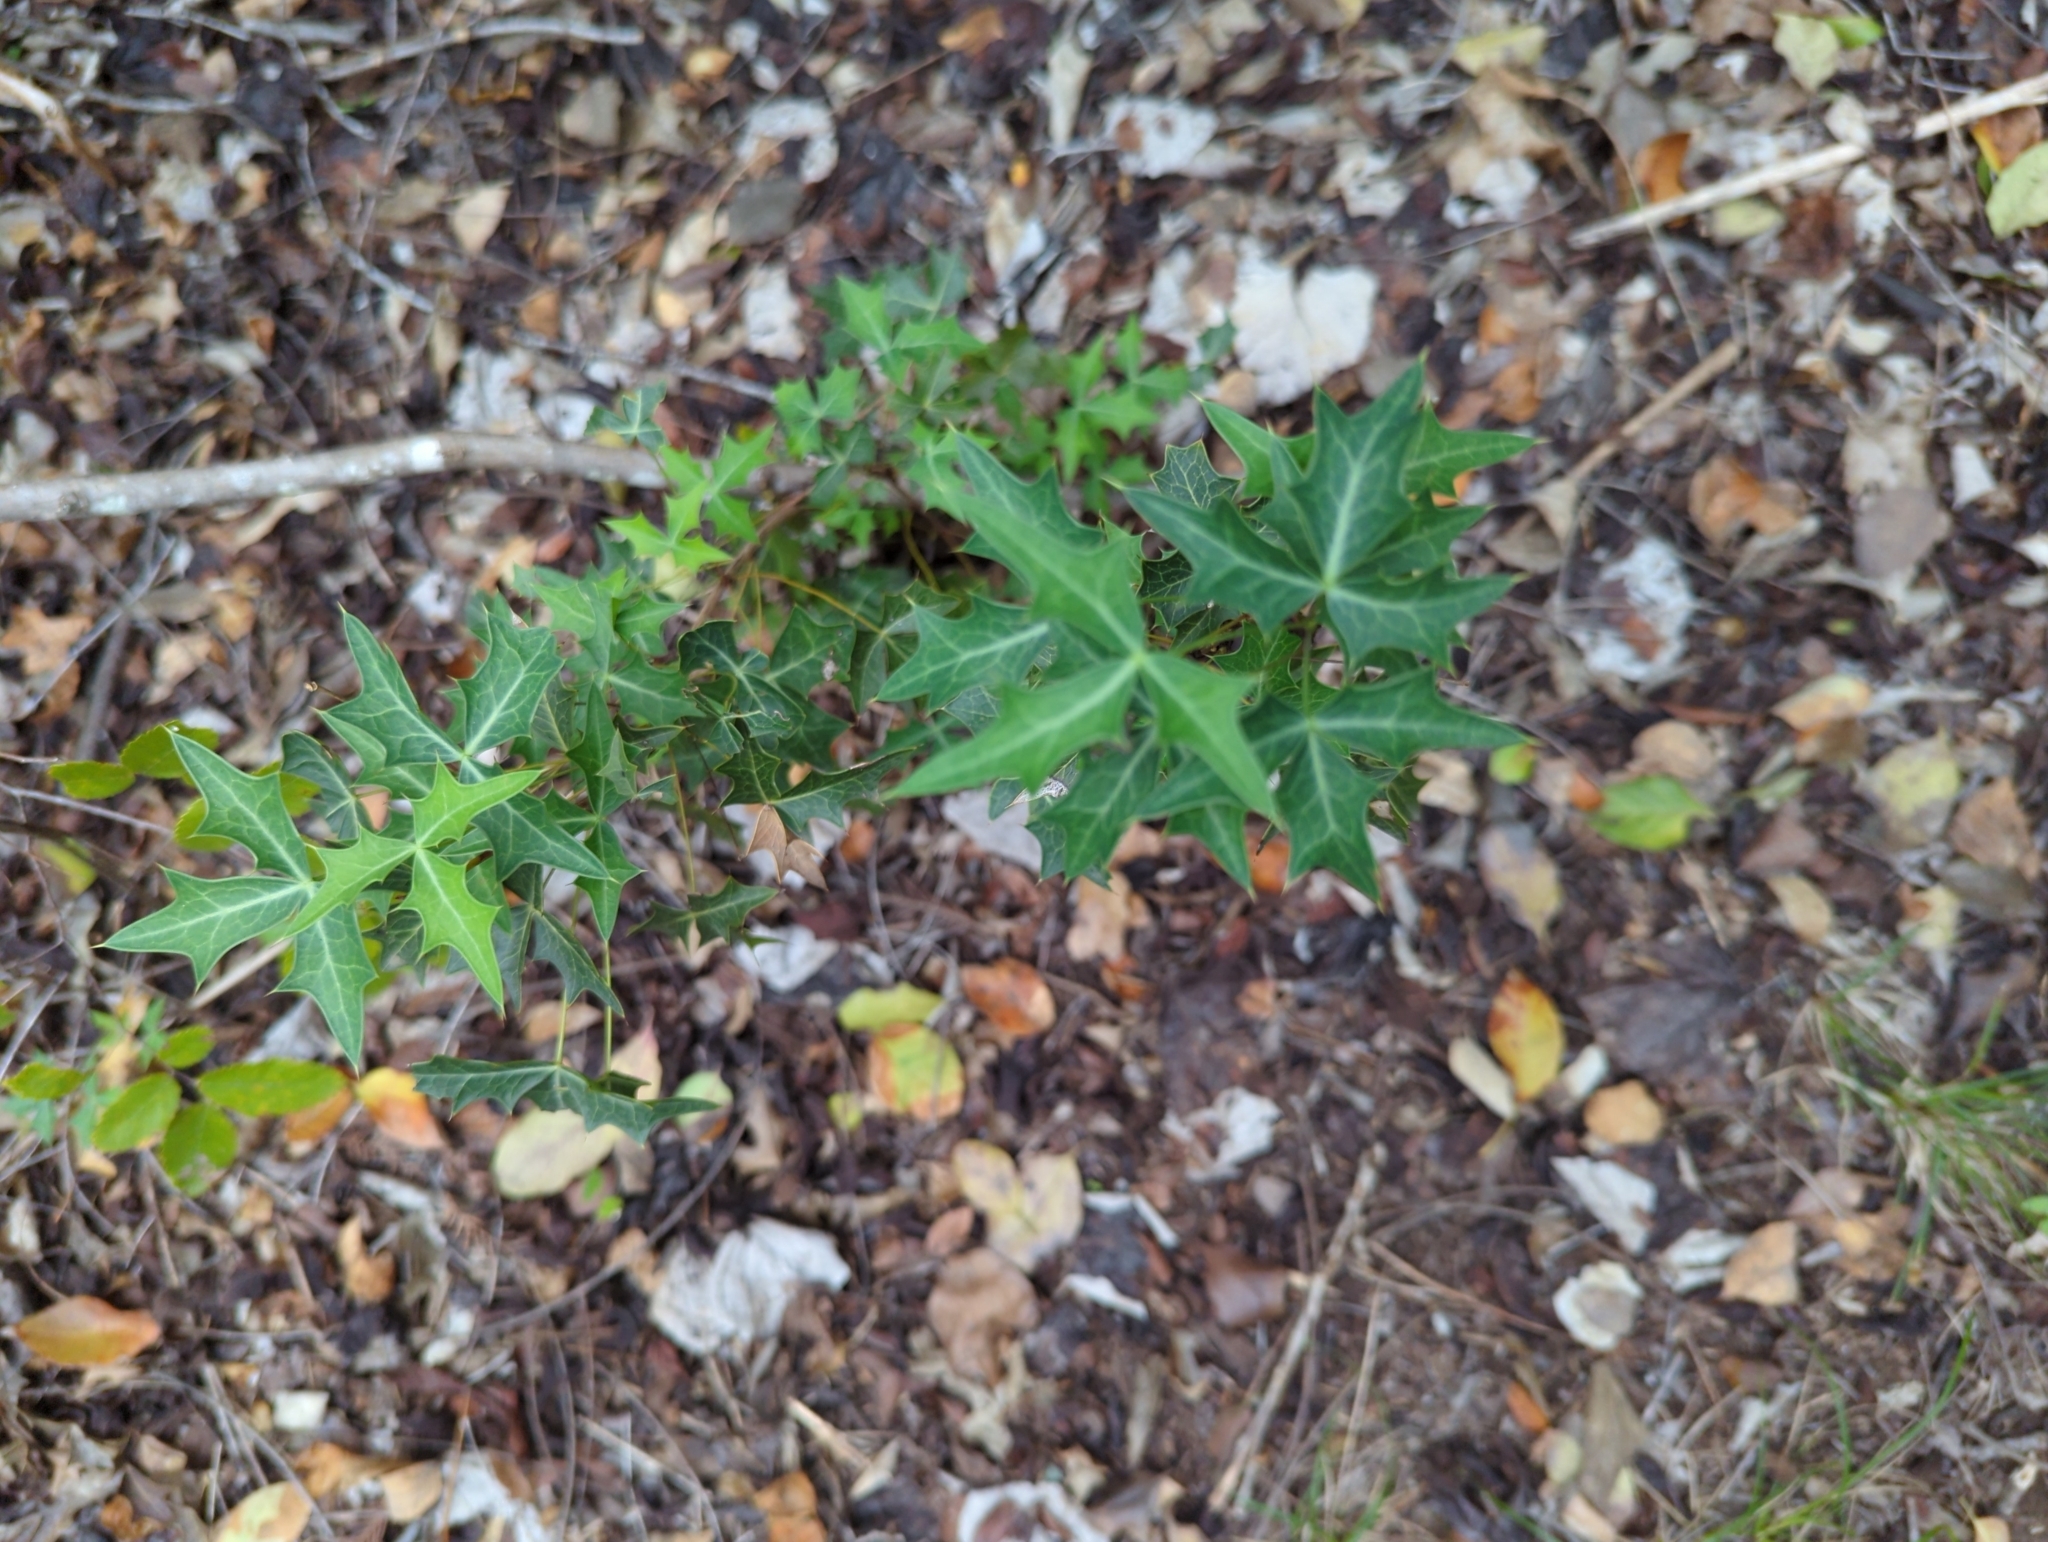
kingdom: Plantae
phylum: Tracheophyta
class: Magnoliopsida
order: Ranunculales
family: Berberidaceae
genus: Alloberberis
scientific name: Alloberberis trifoliolata
